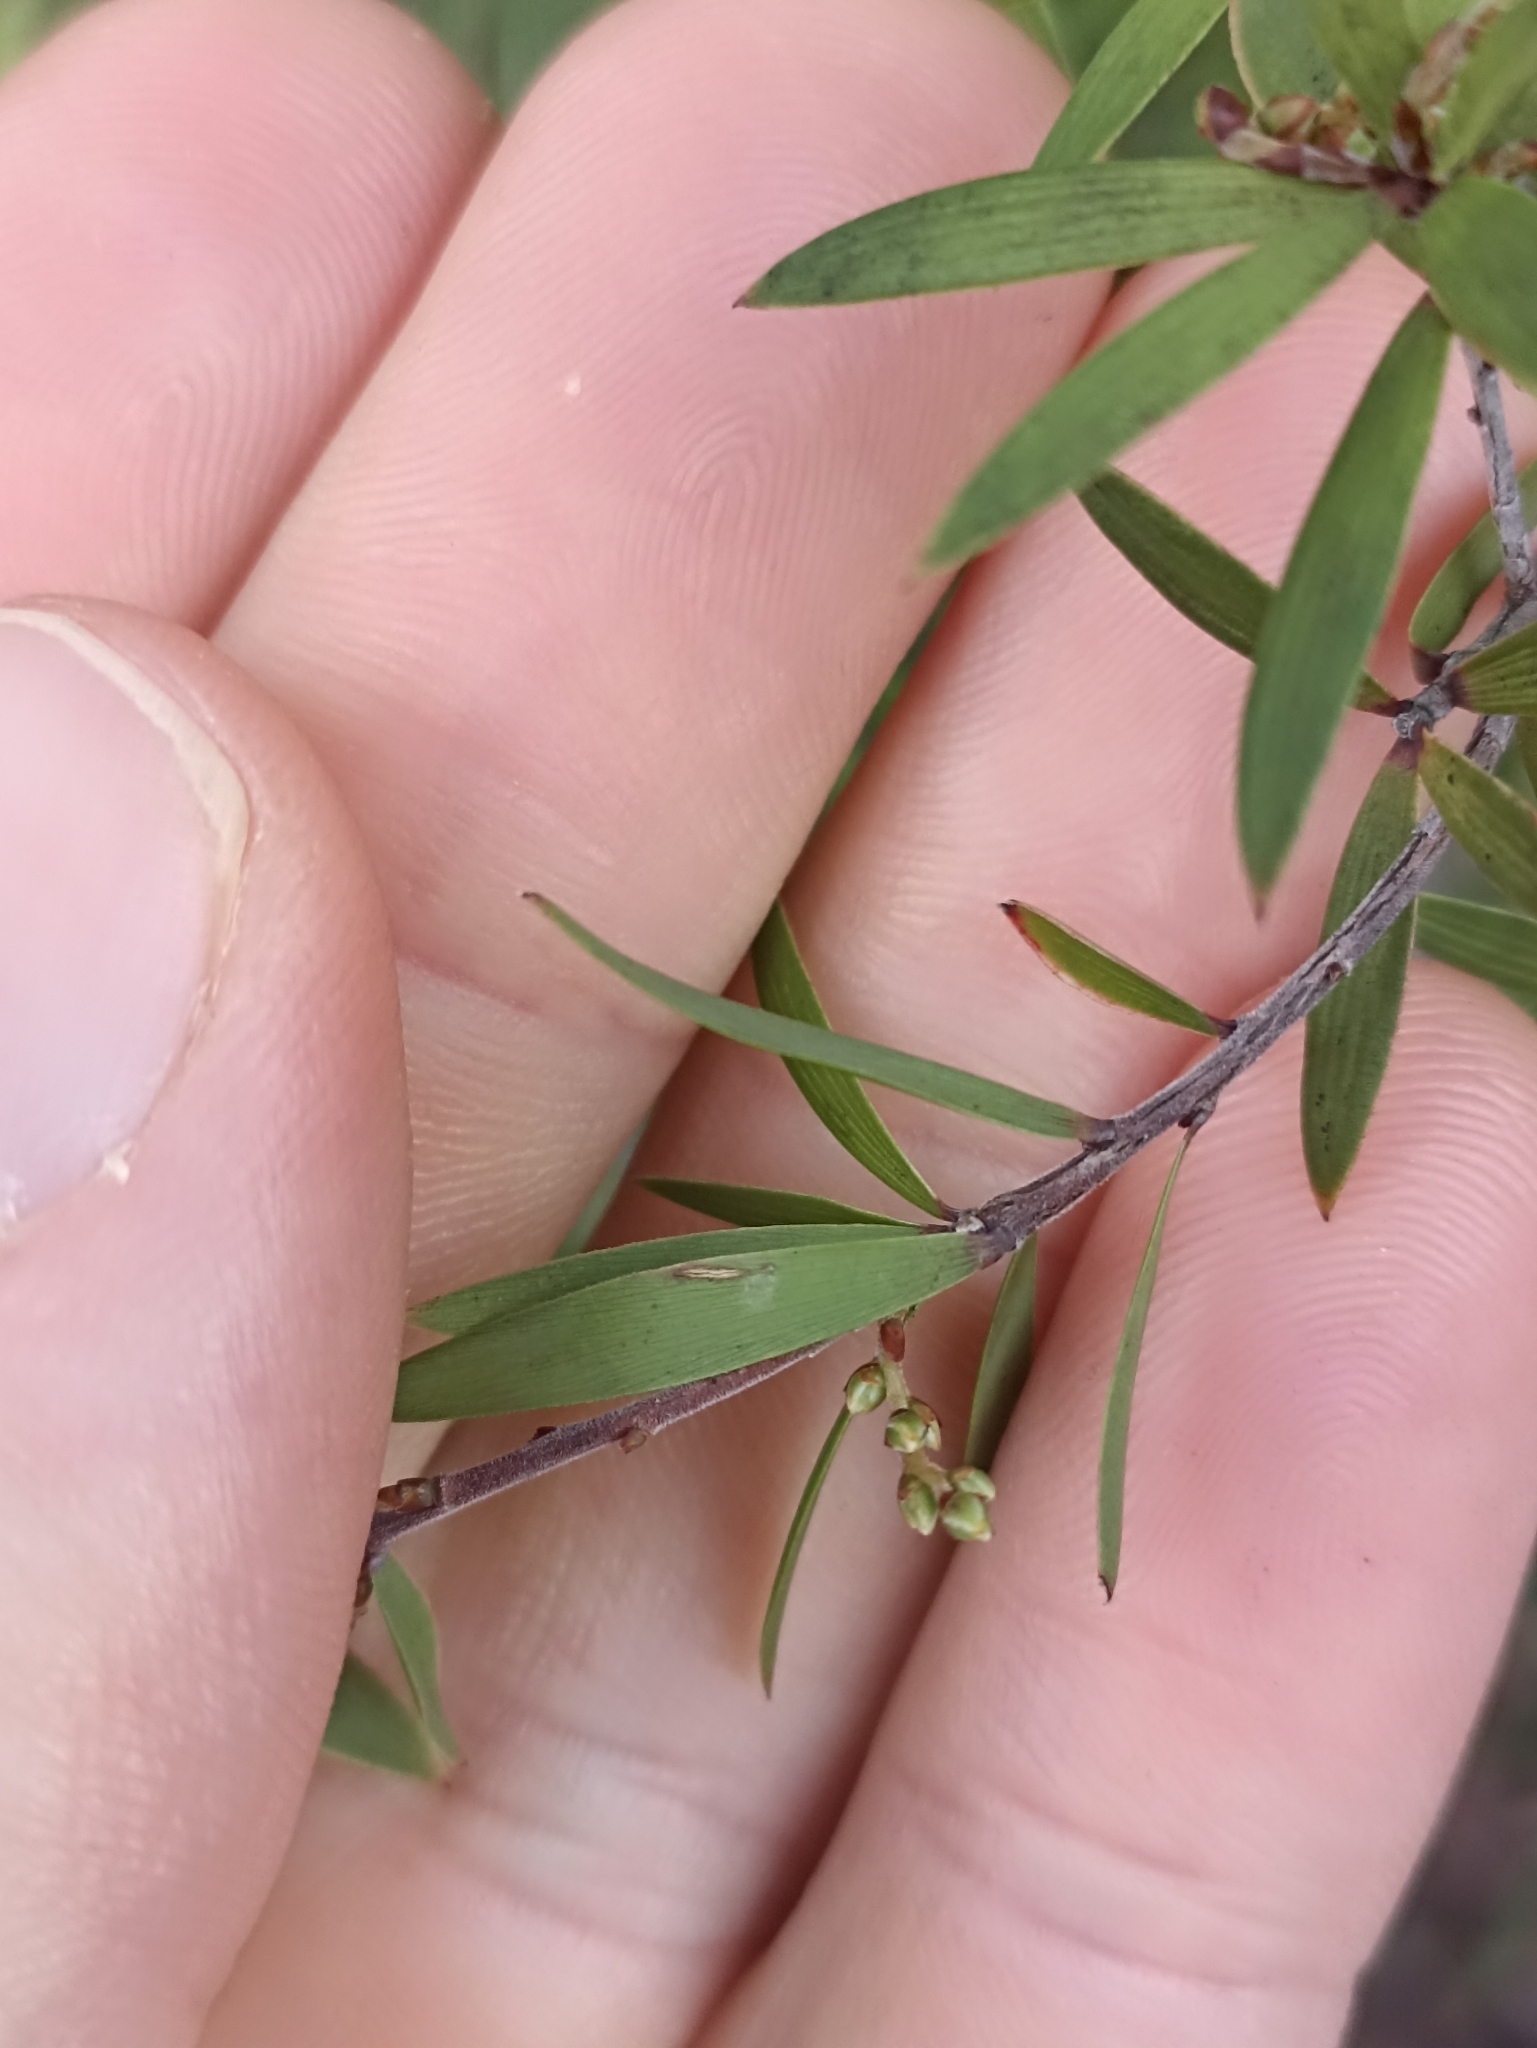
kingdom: Plantae
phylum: Tracheophyta
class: Magnoliopsida
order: Ericales
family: Ericaceae
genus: Leucopogon
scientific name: Leucopogon fasciculatus
